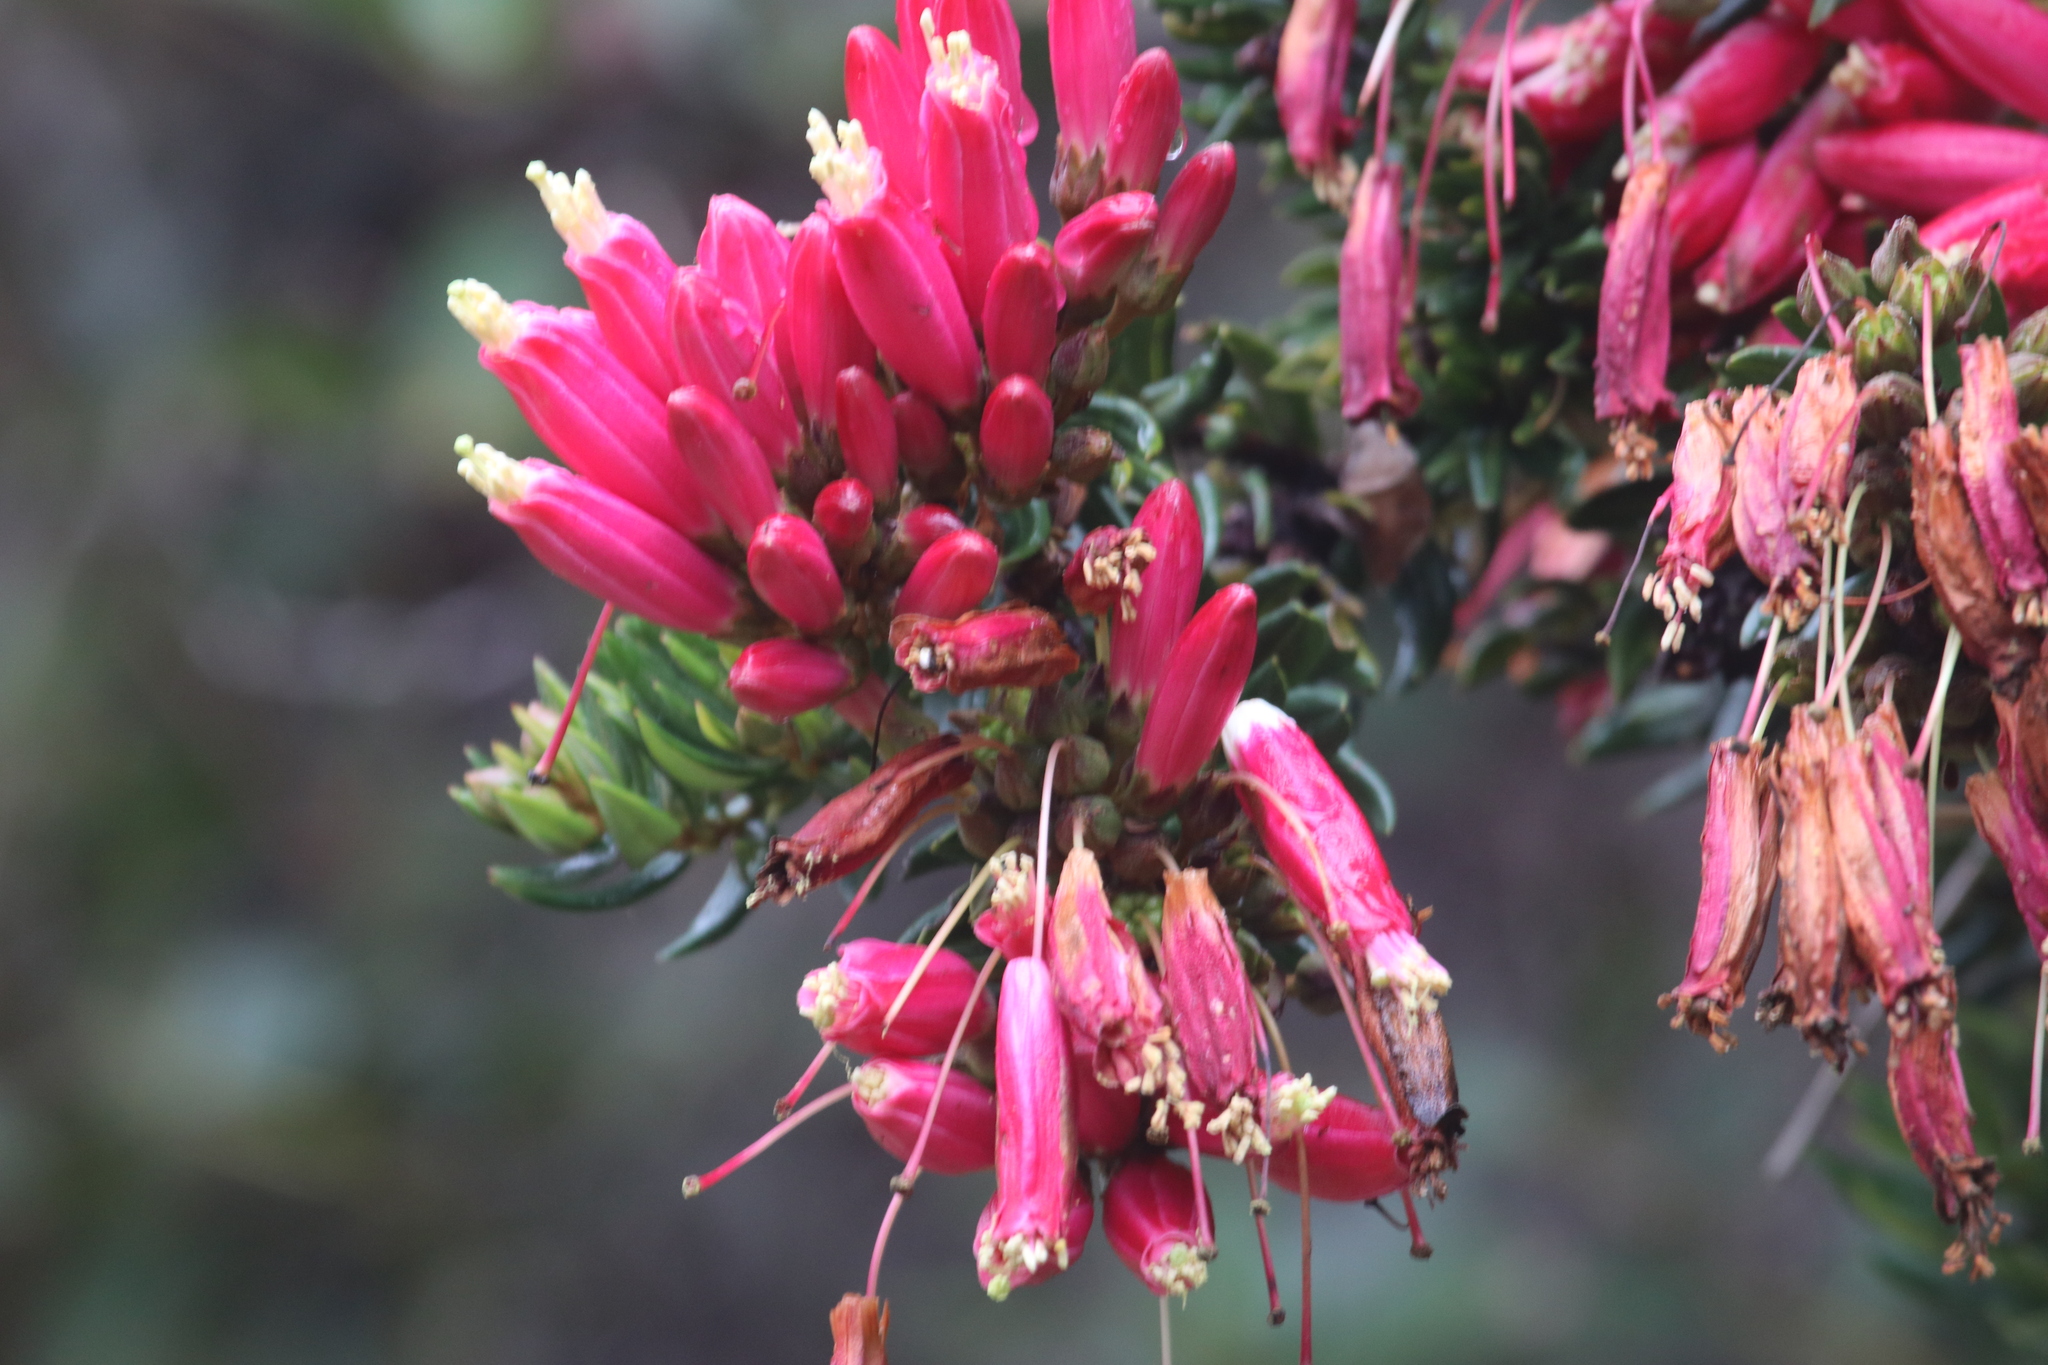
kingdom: Plantae
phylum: Tracheophyta
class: Magnoliopsida
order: Ericales
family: Ericaceae
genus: Bejaria
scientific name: Bejaria resinosa
